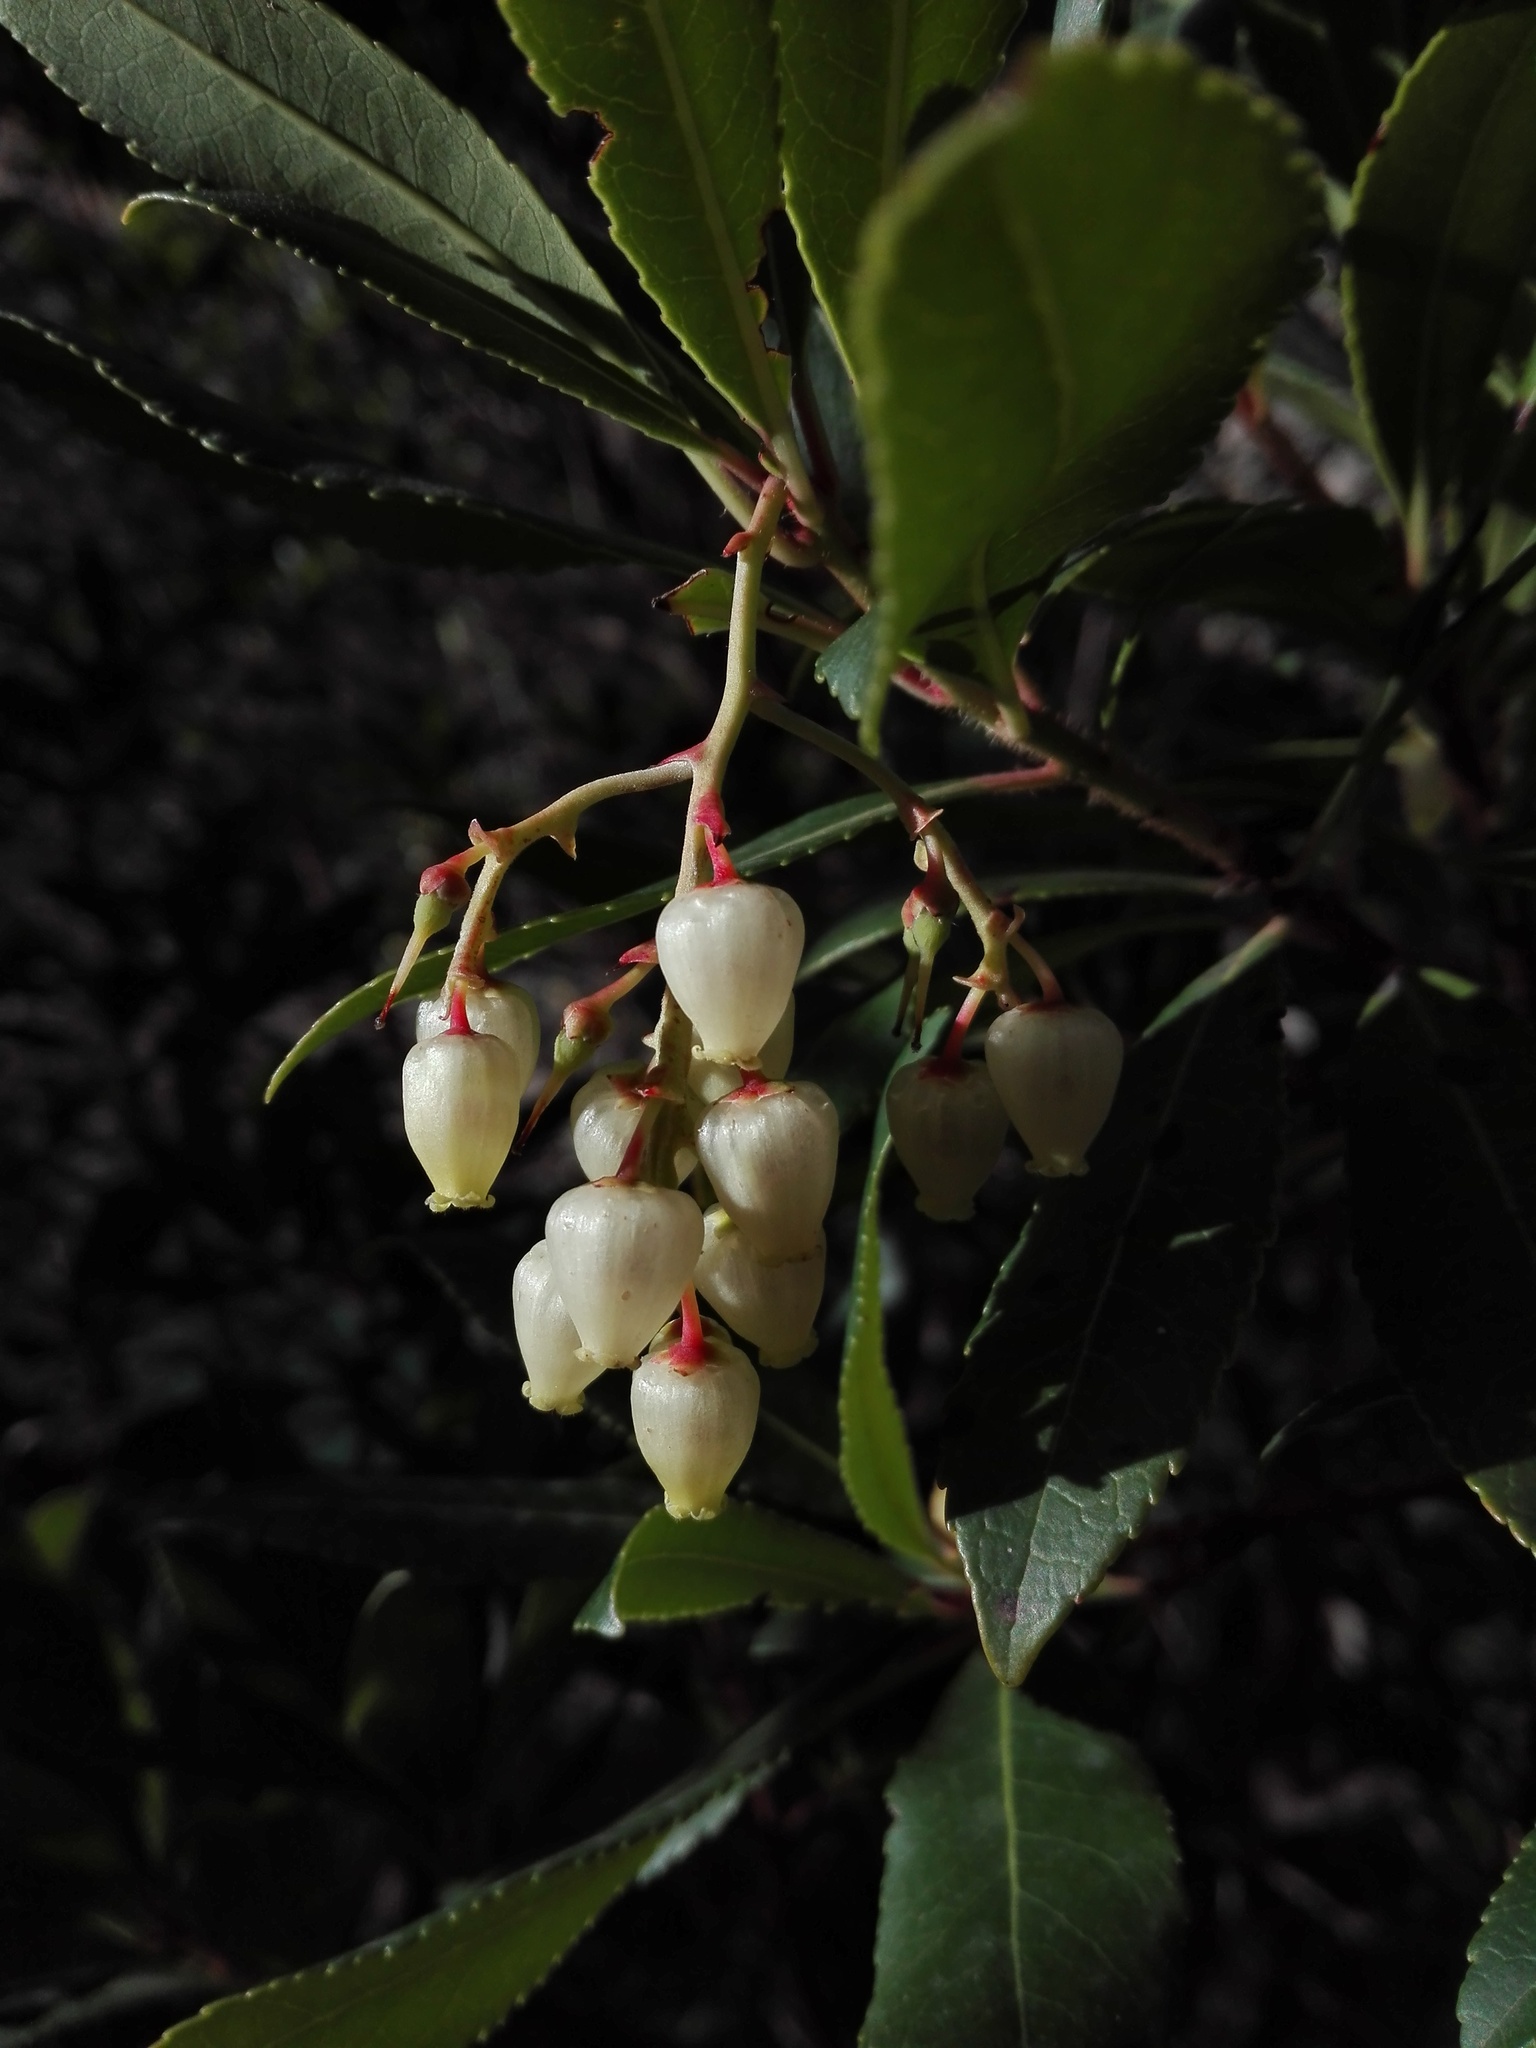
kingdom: Plantae
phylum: Tracheophyta
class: Magnoliopsida
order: Ericales
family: Ericaceae
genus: Arbutus
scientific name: Arbutus unedo
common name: Strawberry-tree
